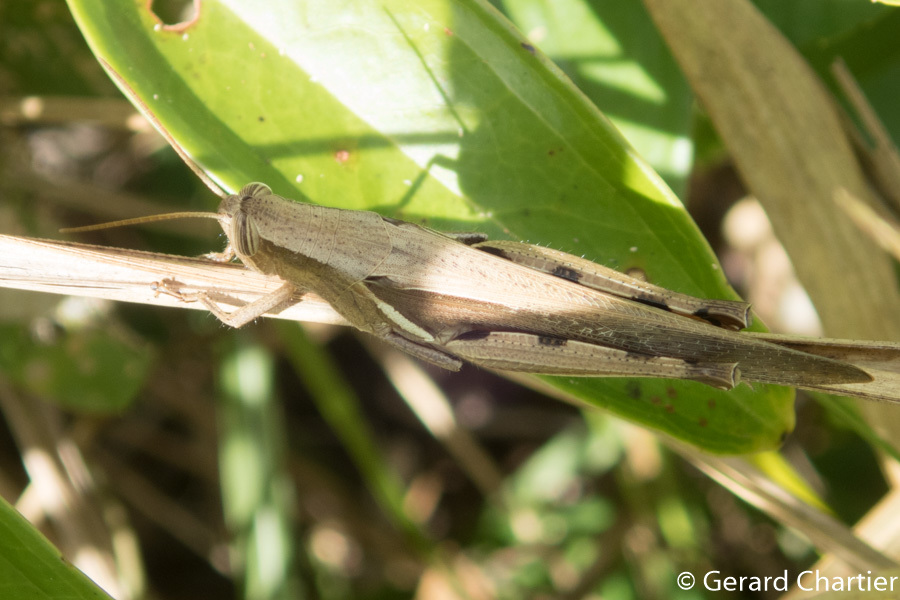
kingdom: Animalia
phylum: Arthropoda
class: Insecta
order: Orthoptera
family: Acrididae
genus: Stenocatantops
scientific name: Stenocatantops splendens
